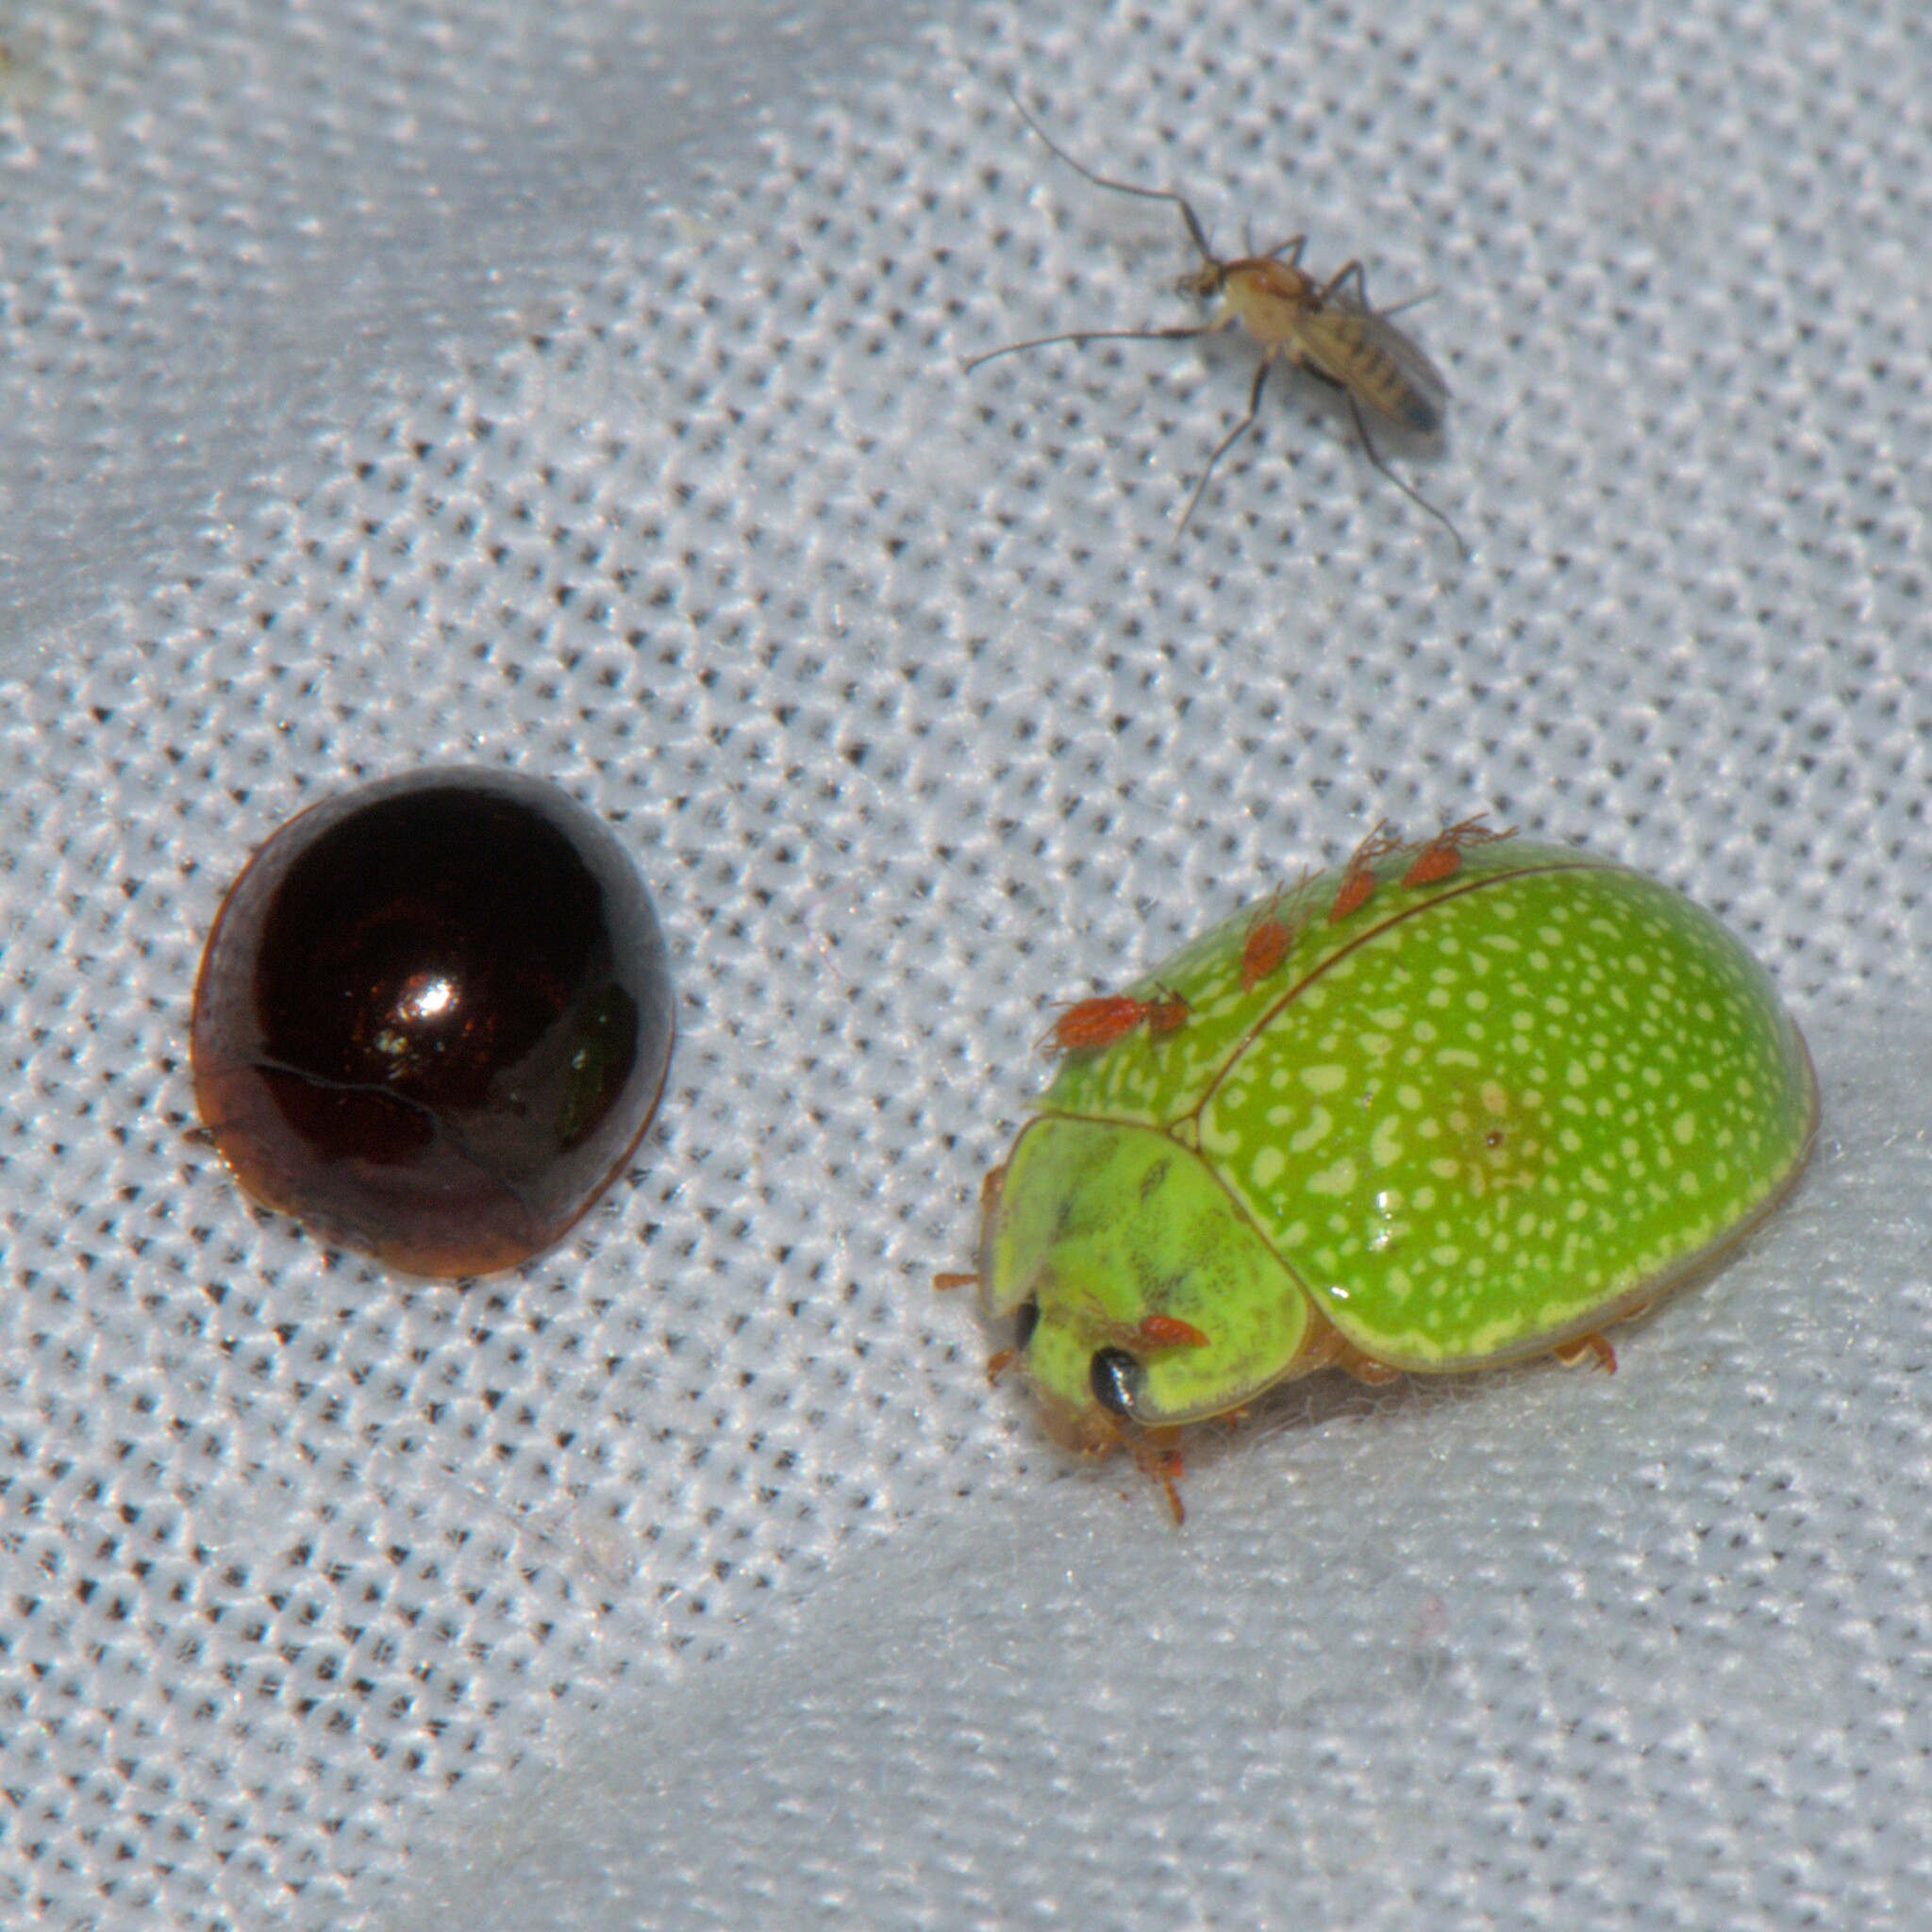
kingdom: Animalia
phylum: Arthropoda
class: Insecta
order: Coleoptera
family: Coccinellidae
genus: Calvia
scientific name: Calvia
